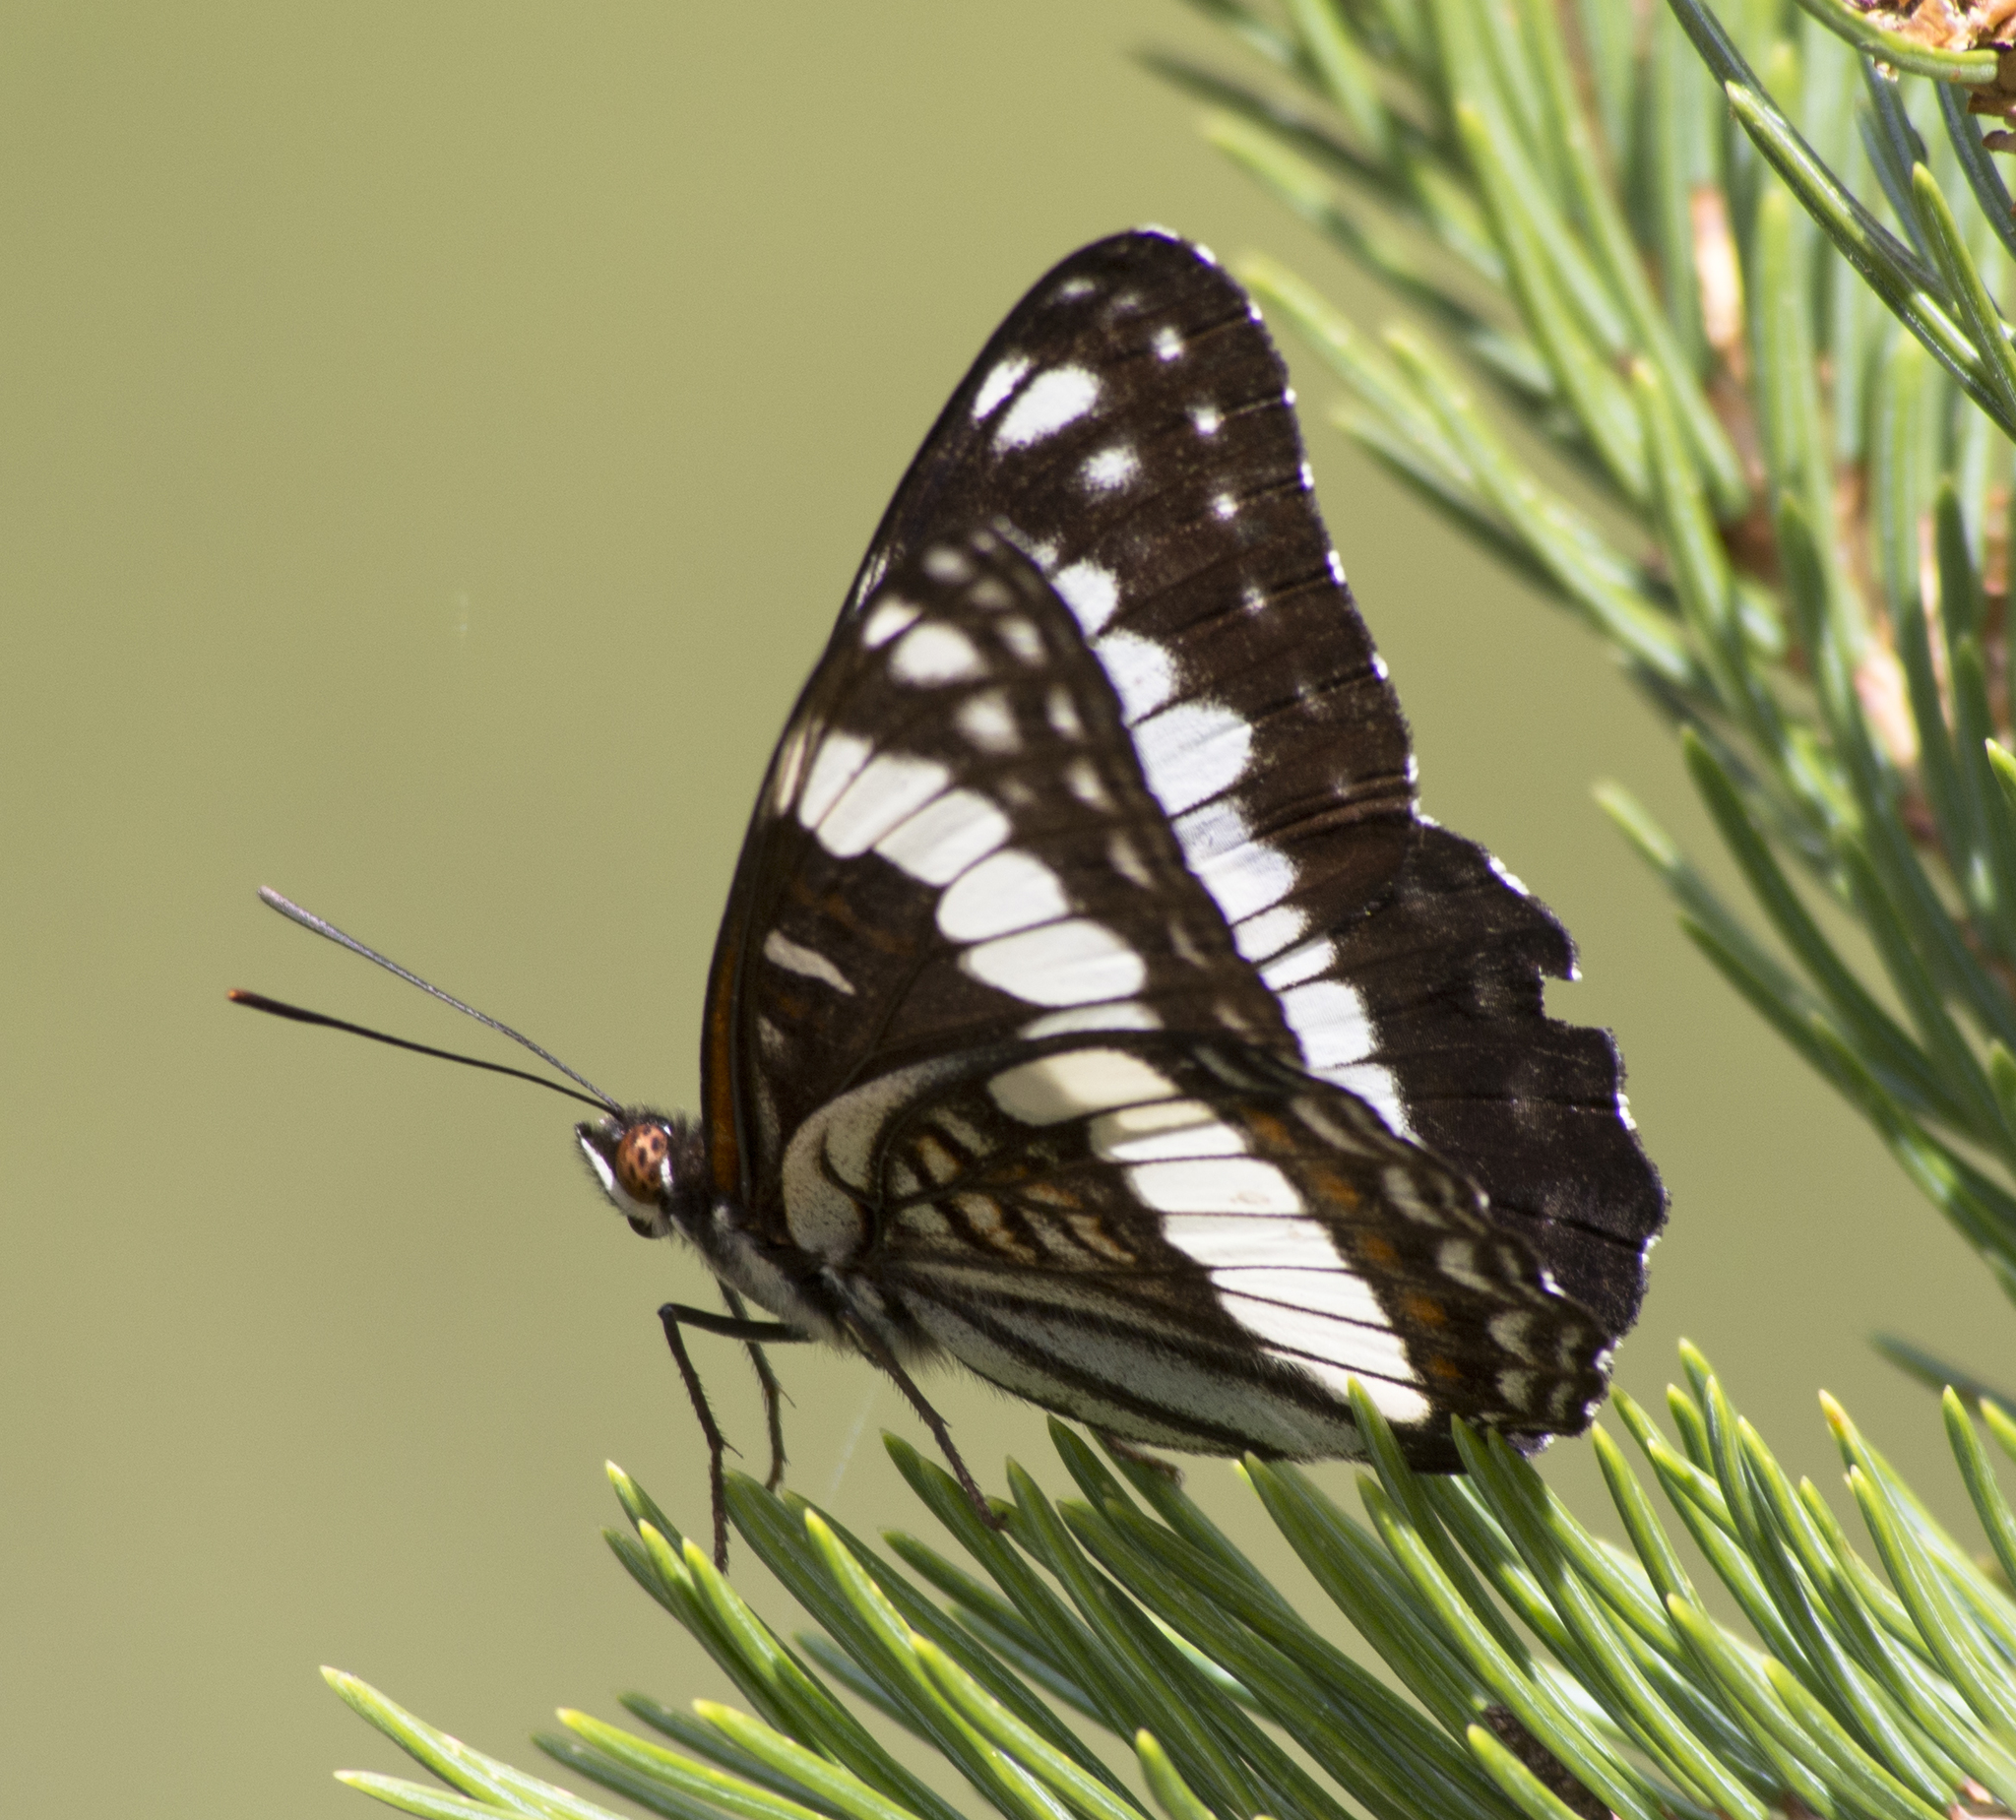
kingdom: Animalia
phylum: Arthropoda
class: Insecta
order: Lepidoptera
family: Nymphalidae
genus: Limenitis
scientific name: Limenitis weidemeyerii
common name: Weidemeyer's admiral
